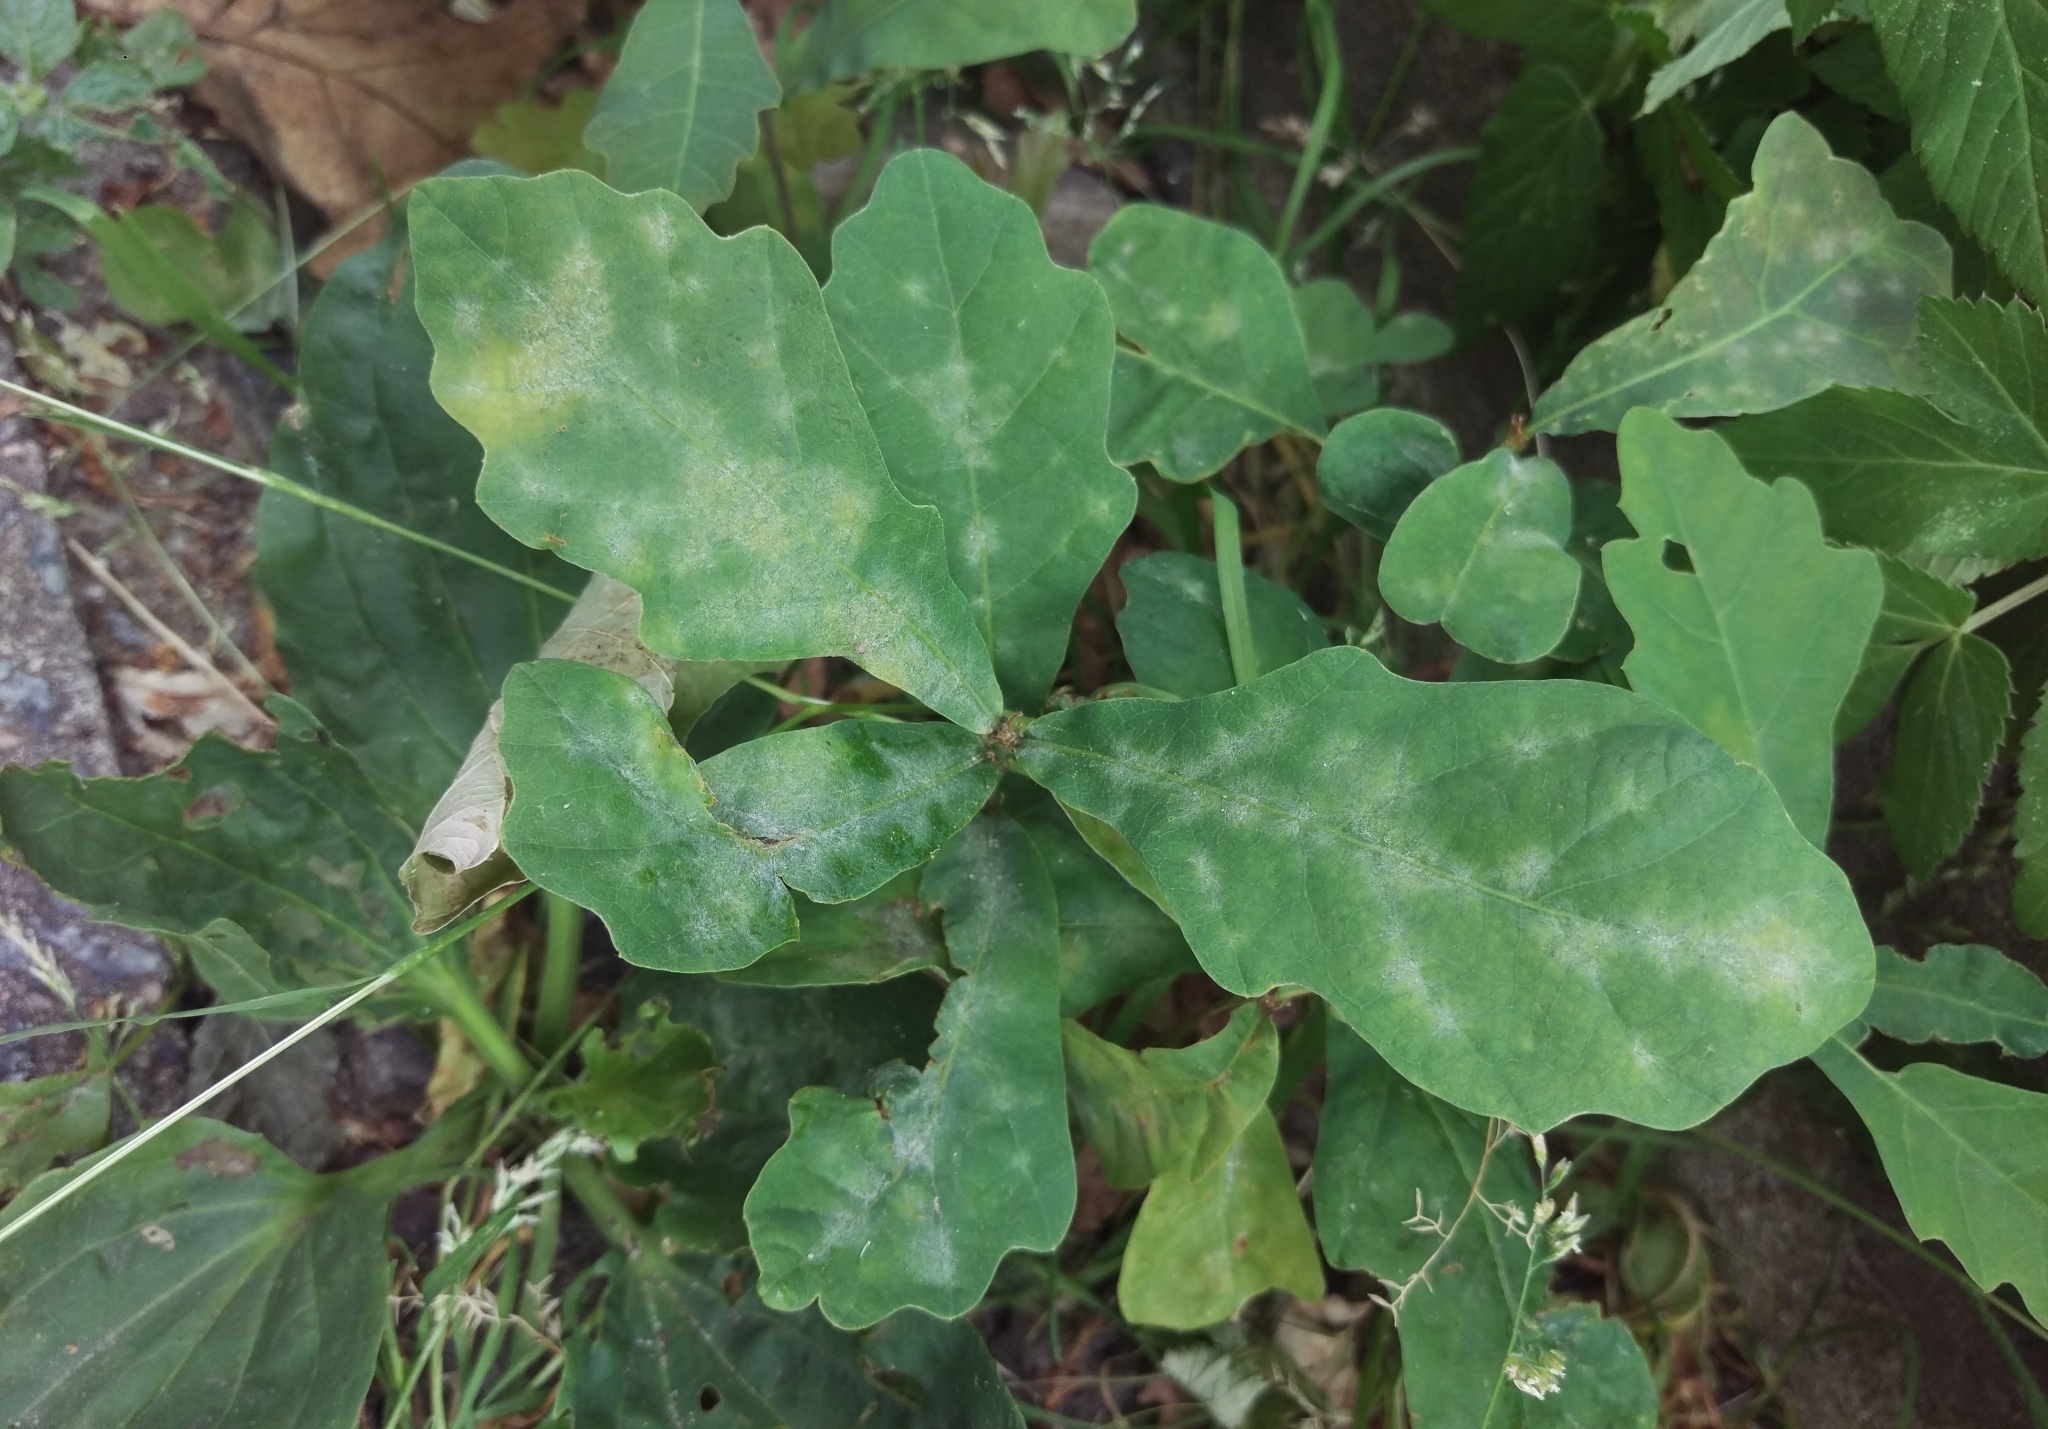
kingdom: Fungi
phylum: Ascomycota
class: Leotiomycetes
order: Helotiales
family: Erysiphaceae
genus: Erysiphe
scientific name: Erysiphe
